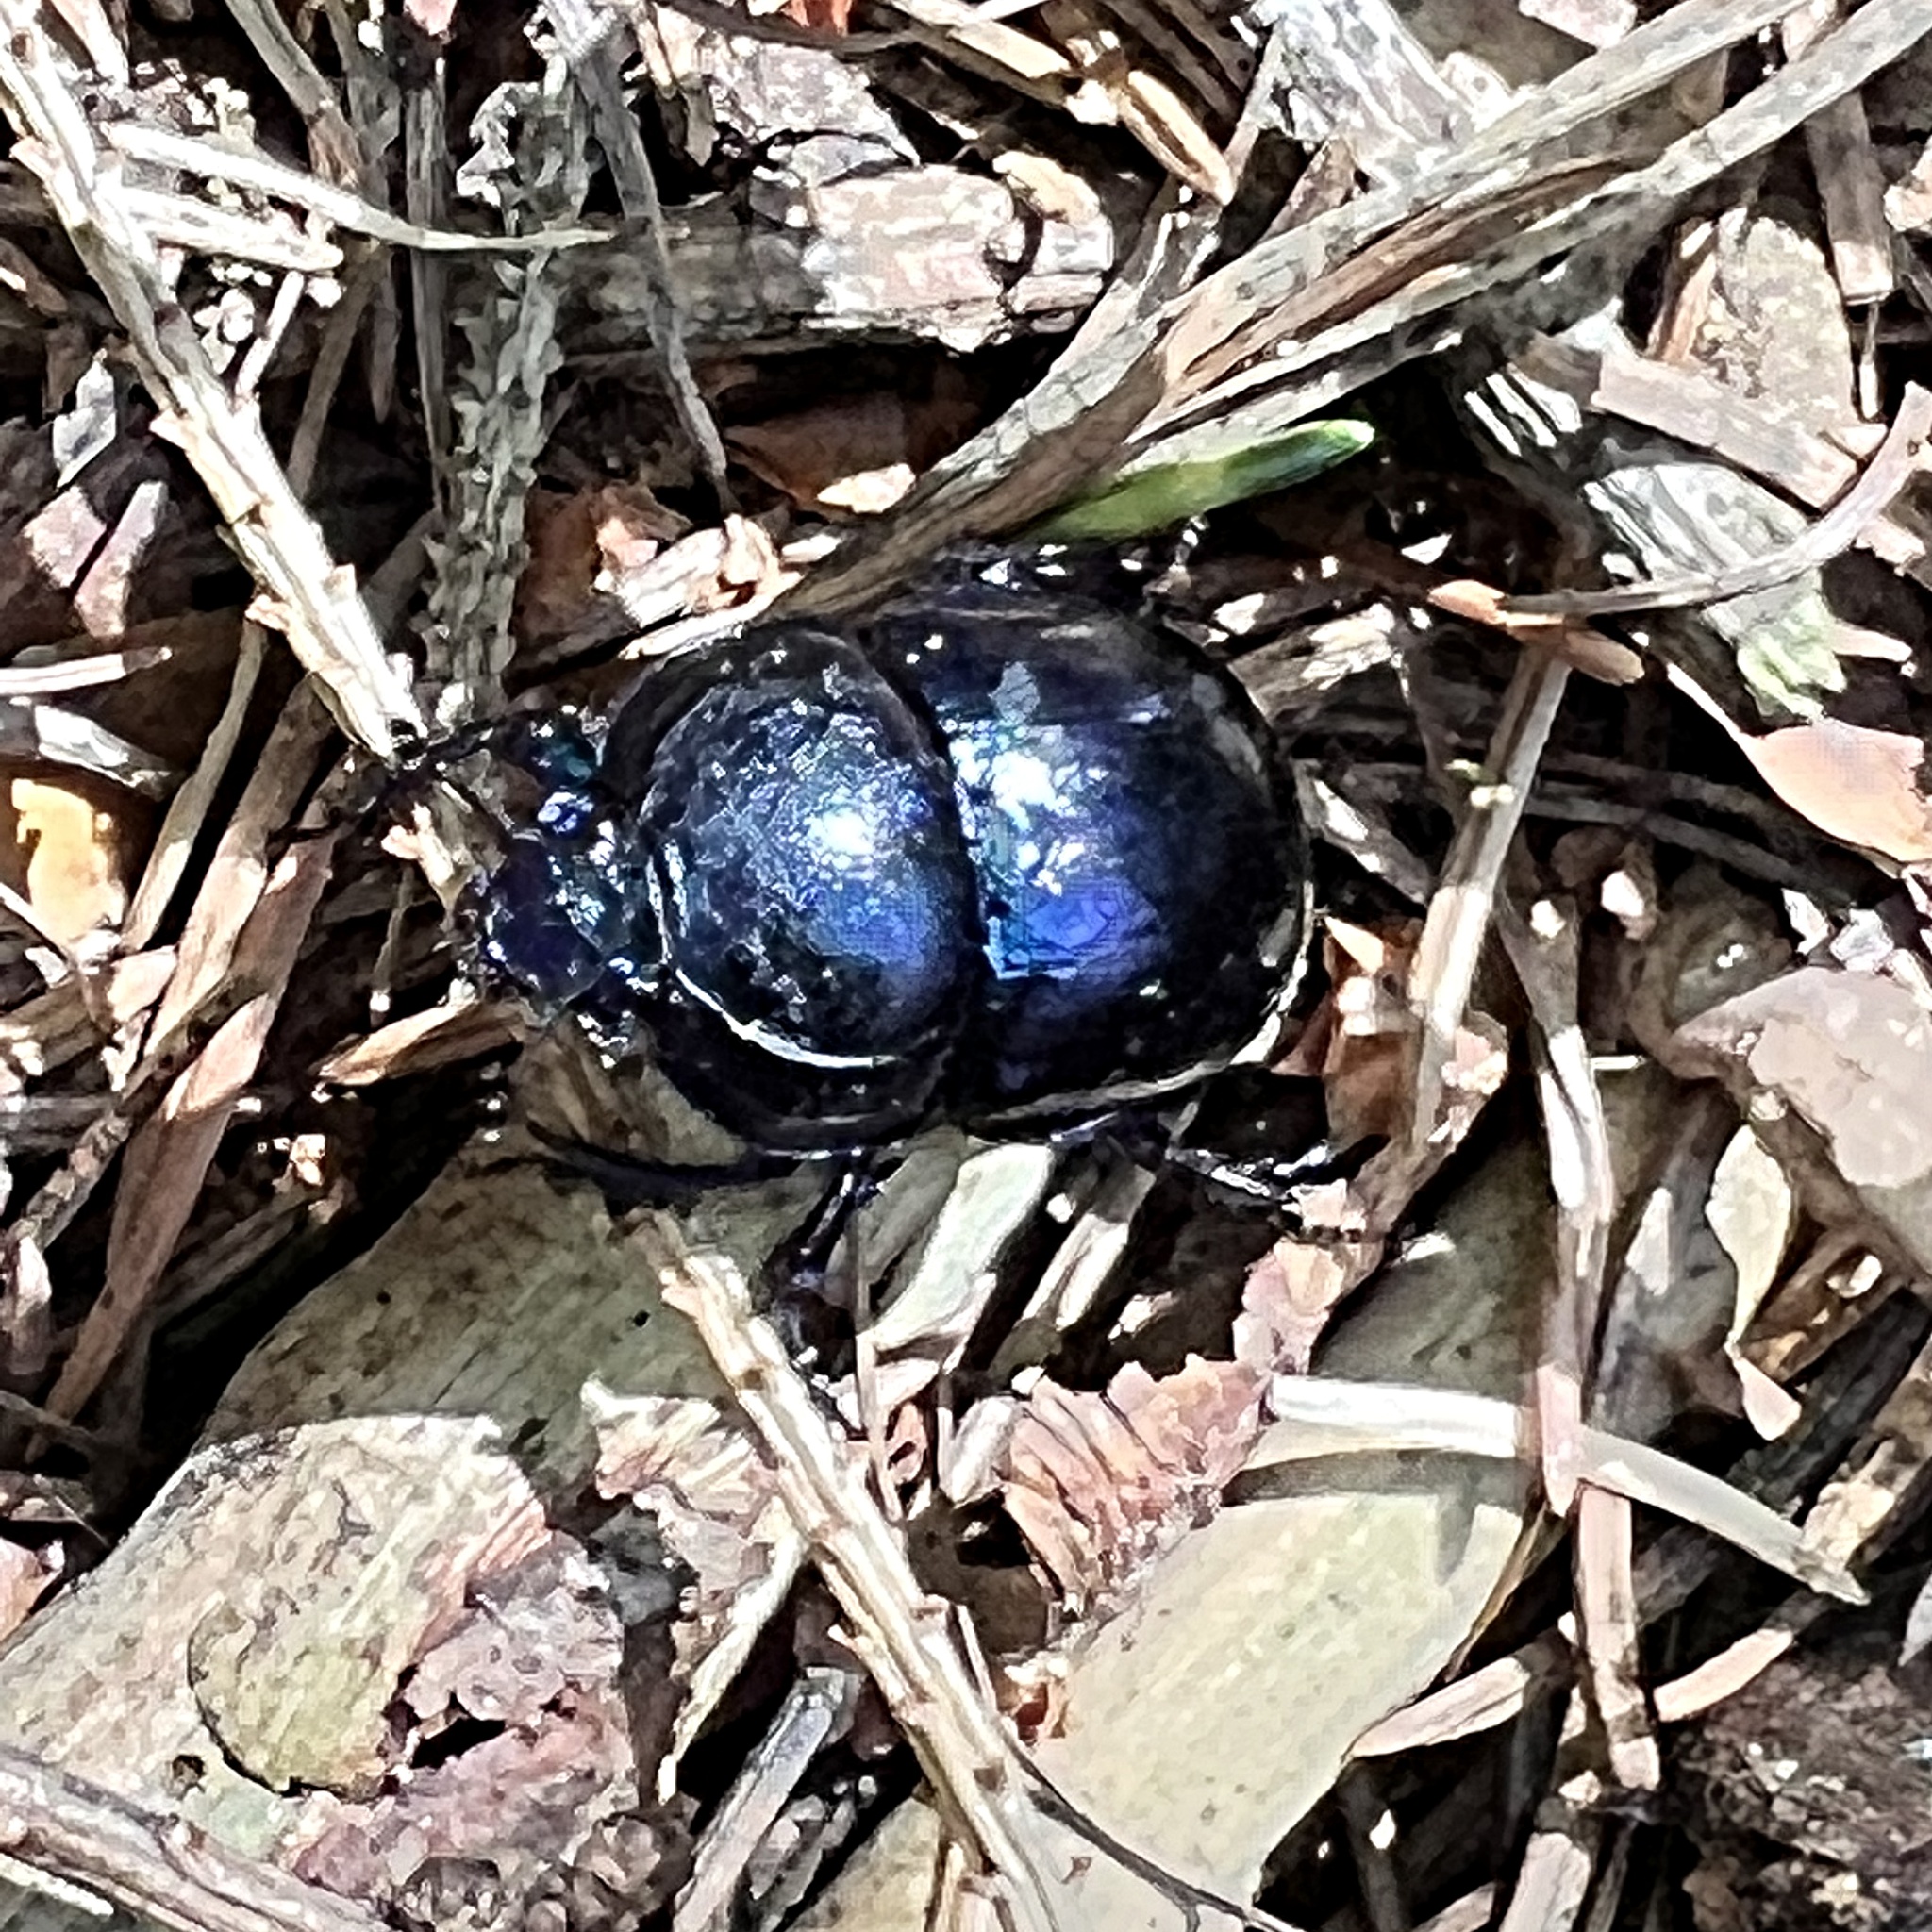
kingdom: Animalia
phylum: Arthropoda
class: Insecta
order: Coleoptera
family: Geotrupidae
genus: Trypocopris
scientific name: Trypocopris vernalis
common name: Spring dumbledor
